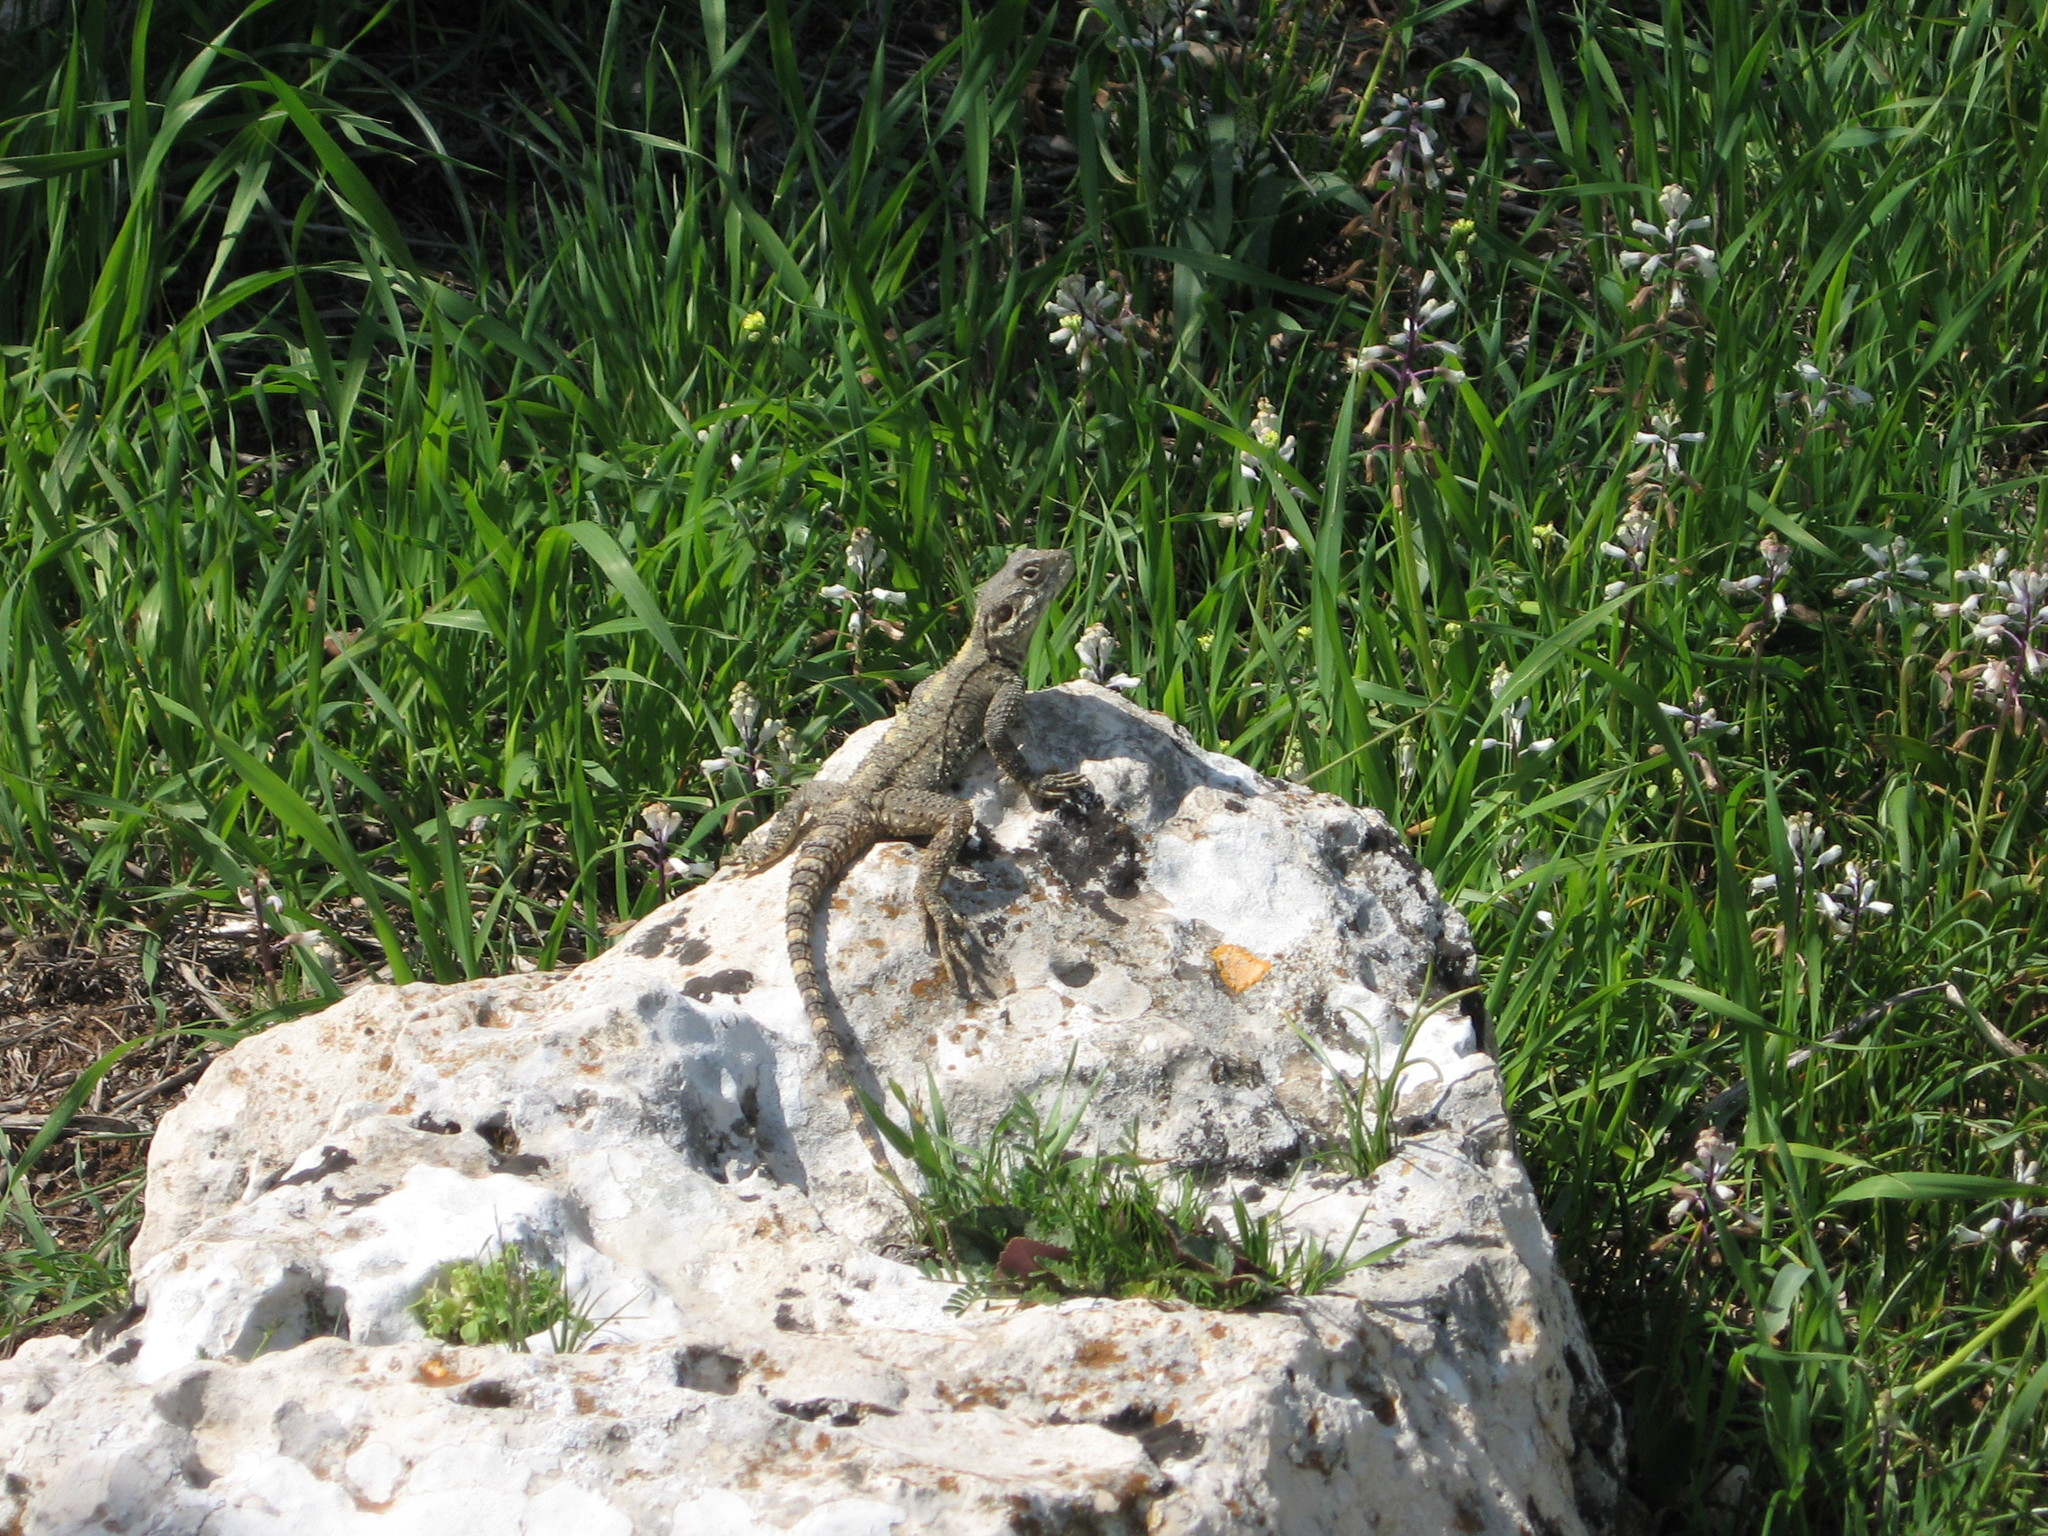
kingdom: Animalia
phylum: Chordata
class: Squamata
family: Agamidae
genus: Laudakia
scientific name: Laudakia vulgaris
